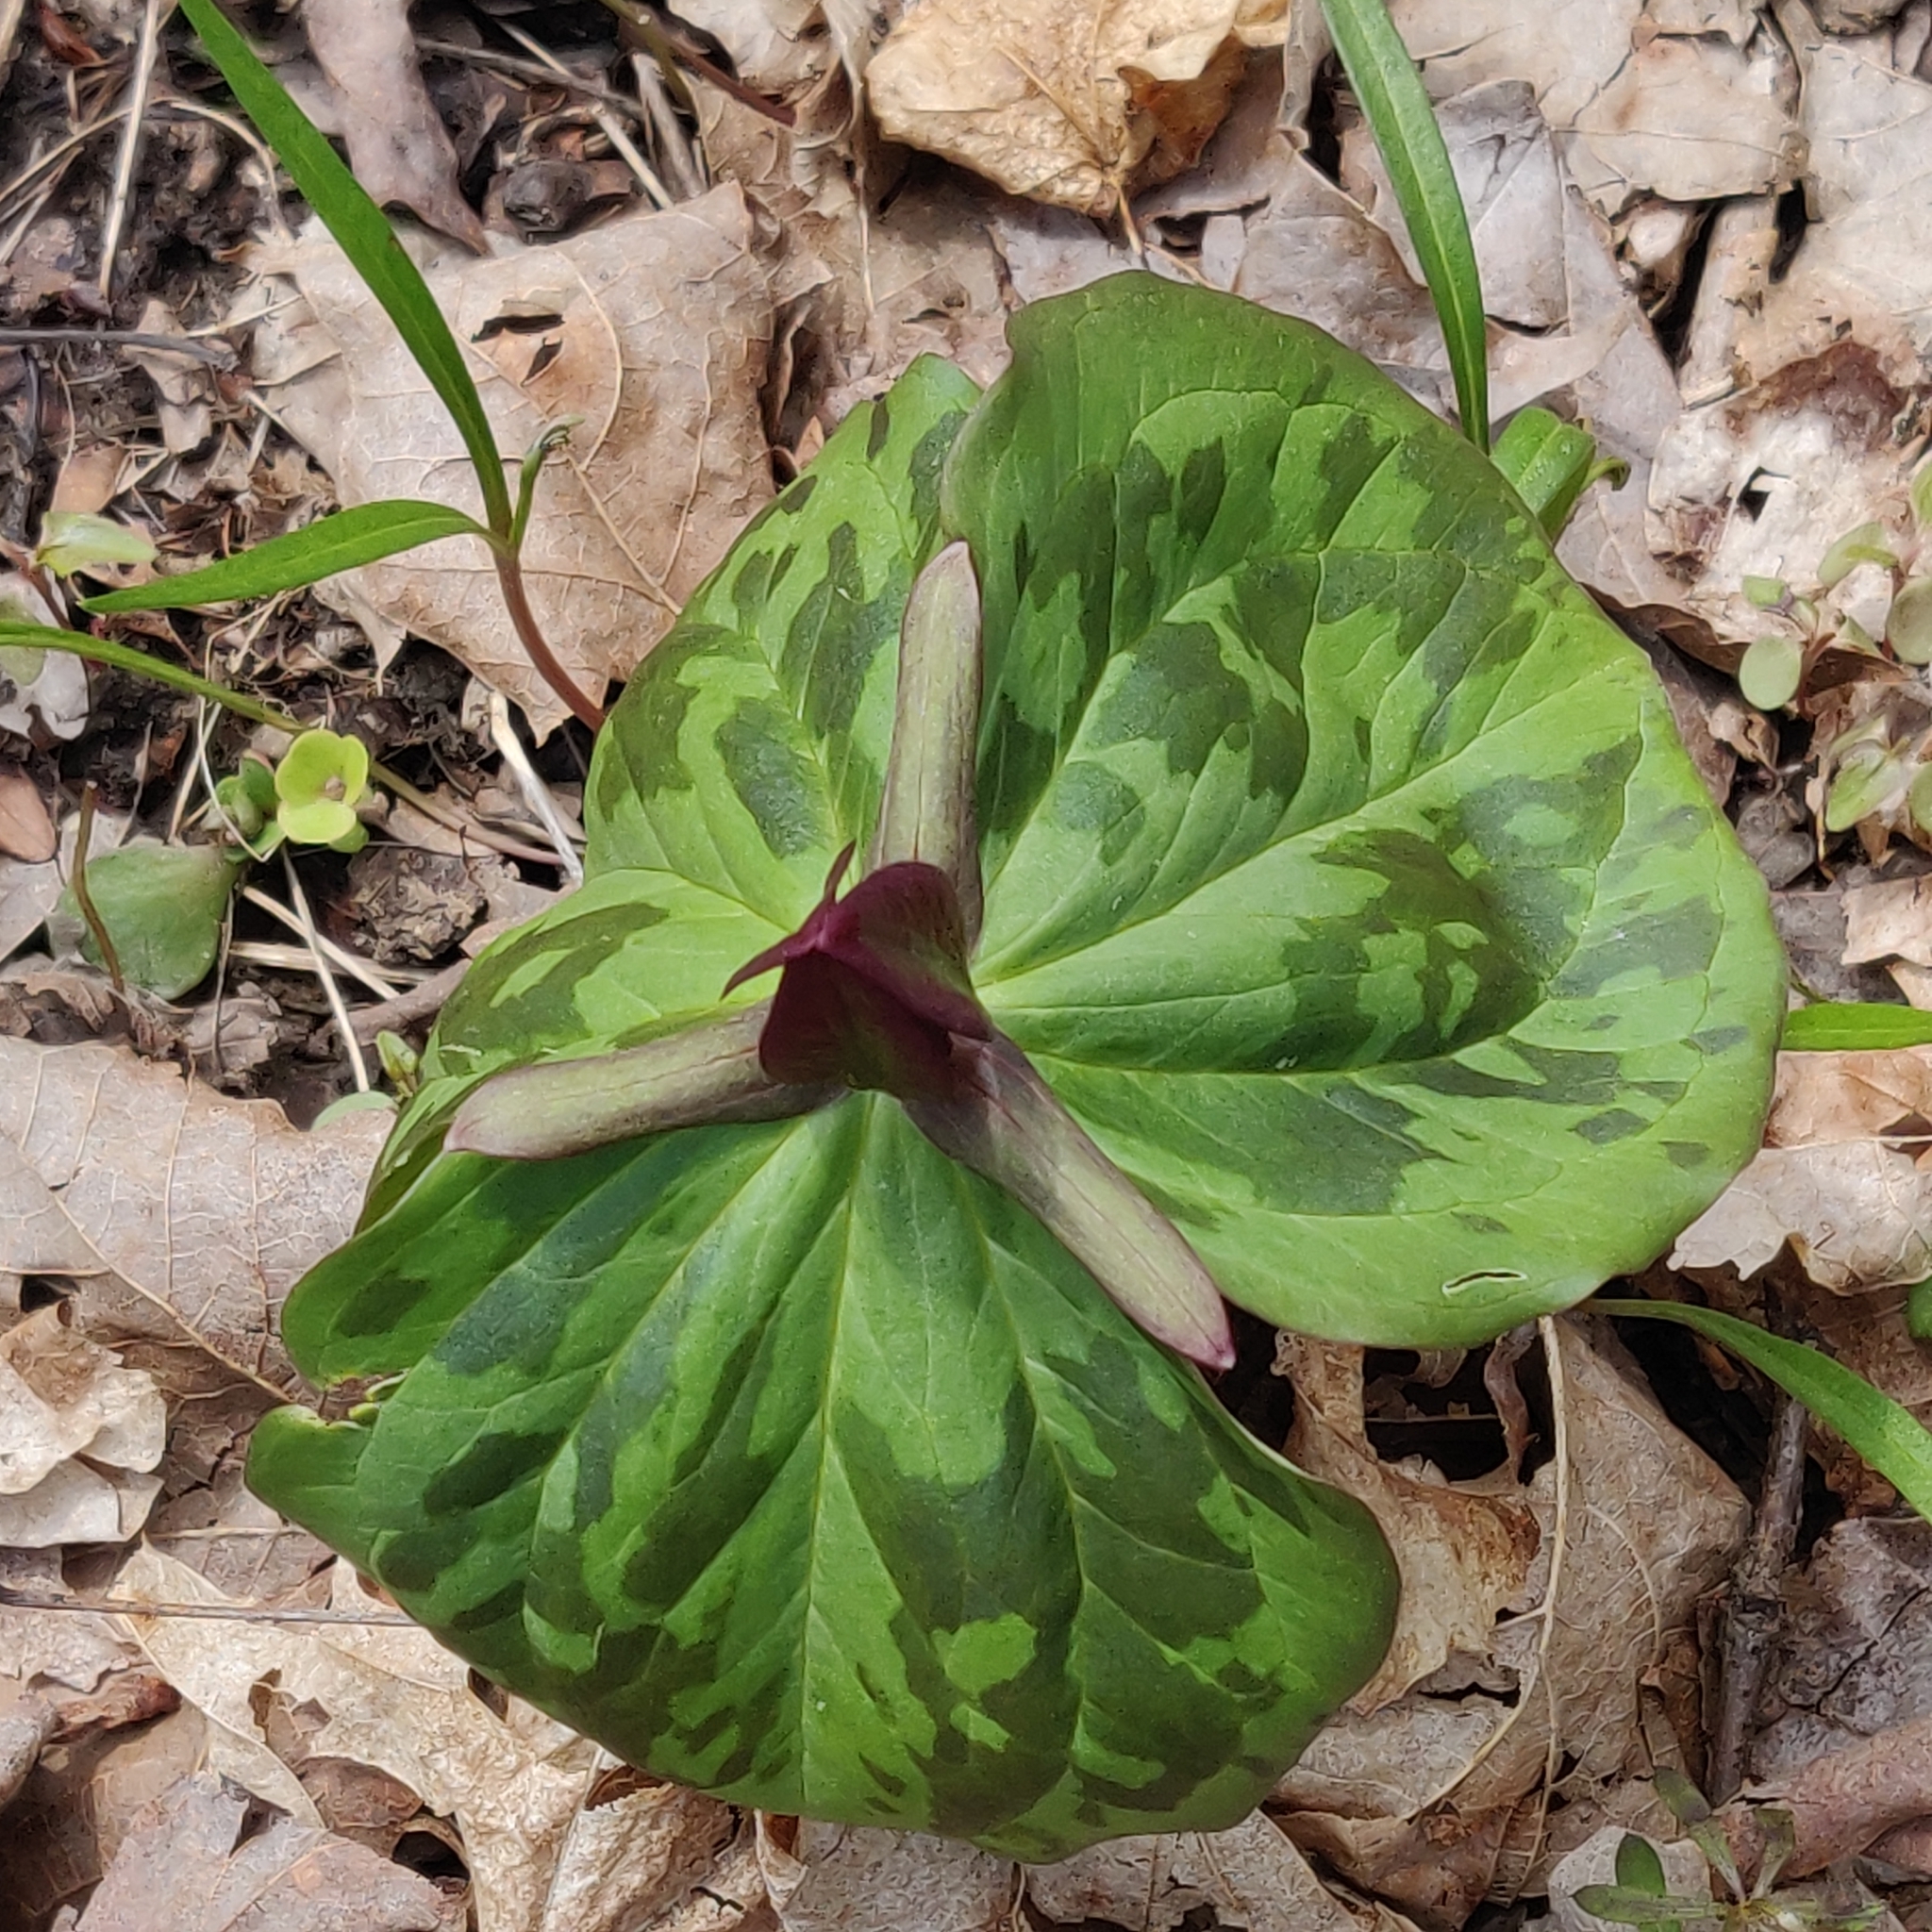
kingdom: Plantae
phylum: Tracheophyta
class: Liliopsida
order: Liliales
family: Melanthiaceae
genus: Trillium
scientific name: Trillium sessile
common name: Sessile trillium
